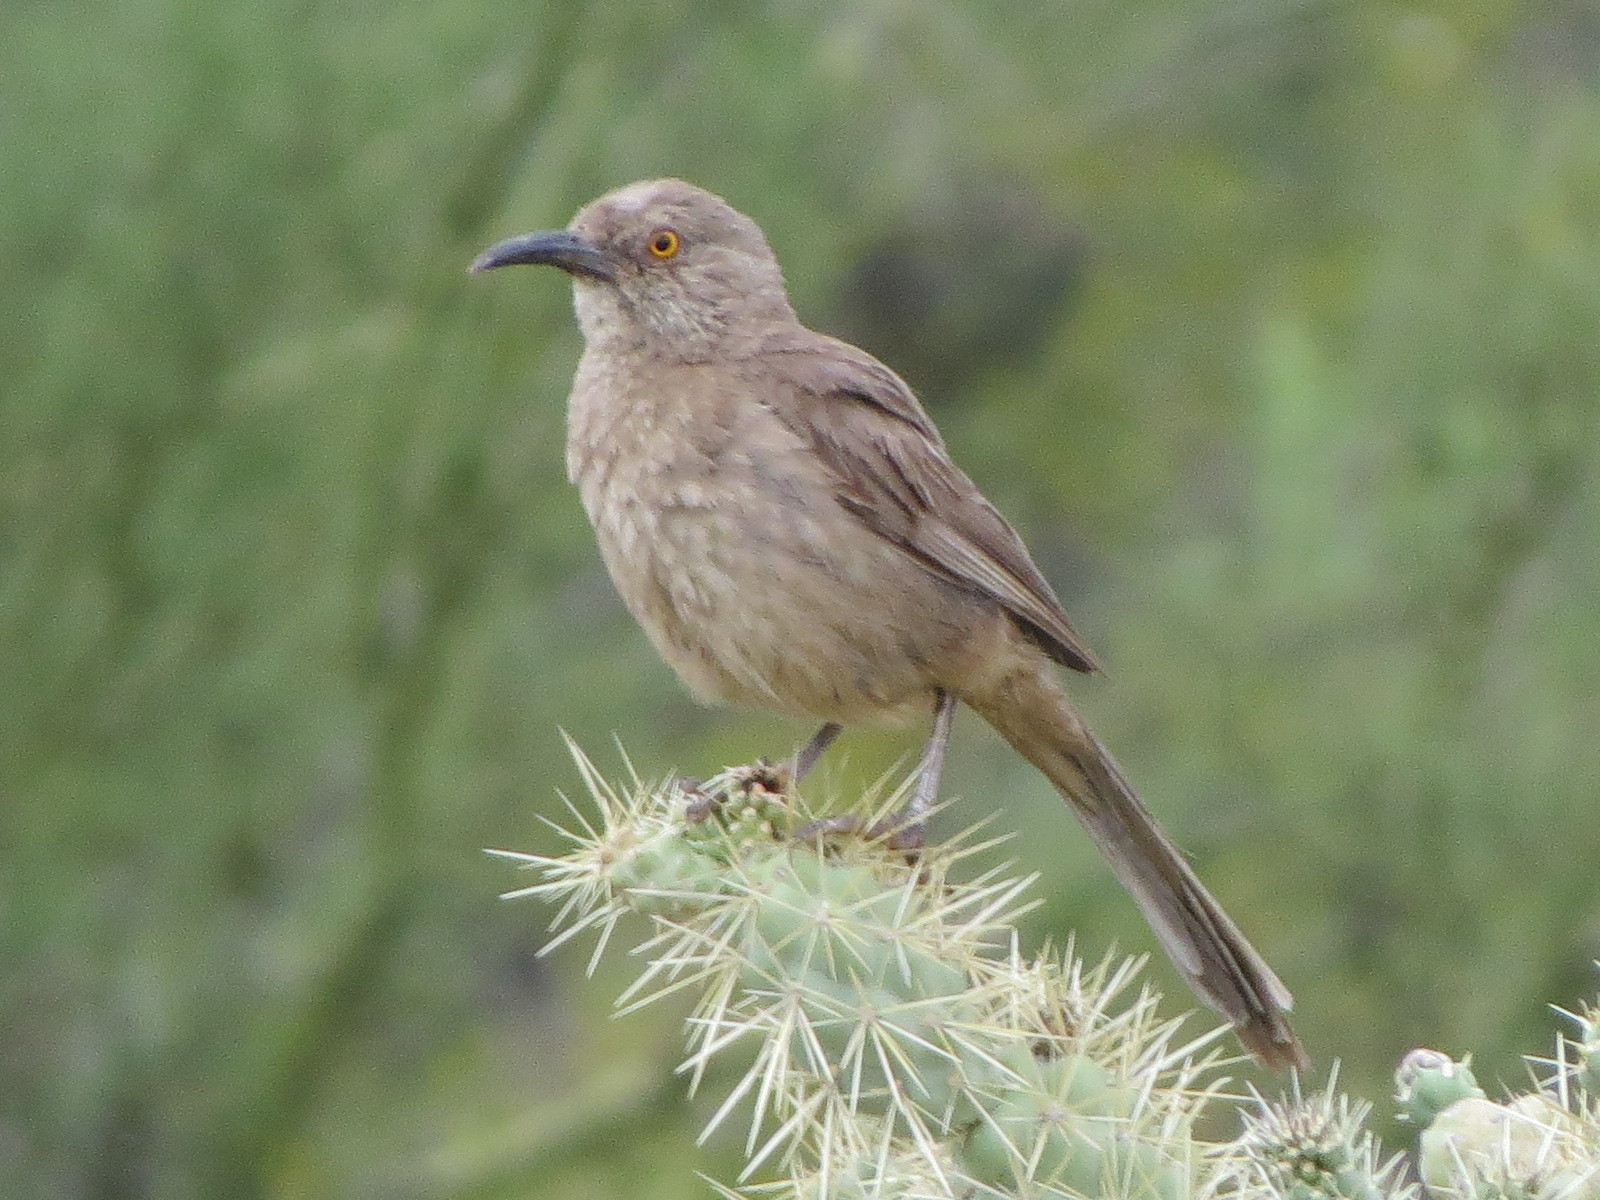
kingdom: Animalia
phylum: Chordata
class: Aves
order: Passeriformes
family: Mimidae
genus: Toxostoma
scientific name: Toxostoma curvirostre
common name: Curve-billed thrasher
